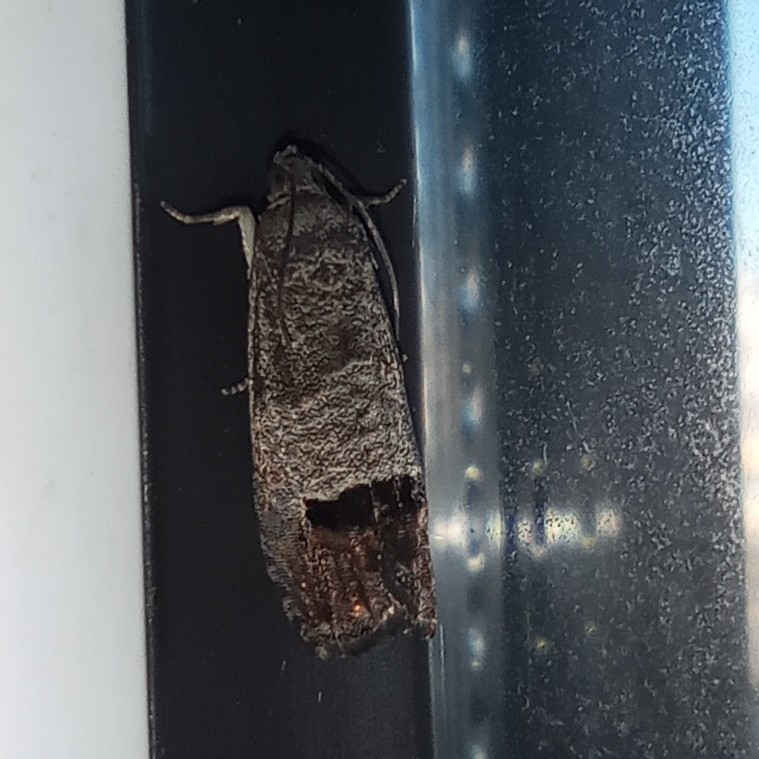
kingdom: Animalia
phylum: Arthropoda
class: Insecta
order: Lepidoptera
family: Tortricidae
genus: Cydia
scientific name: Cydia pomonella
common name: Codling moth
